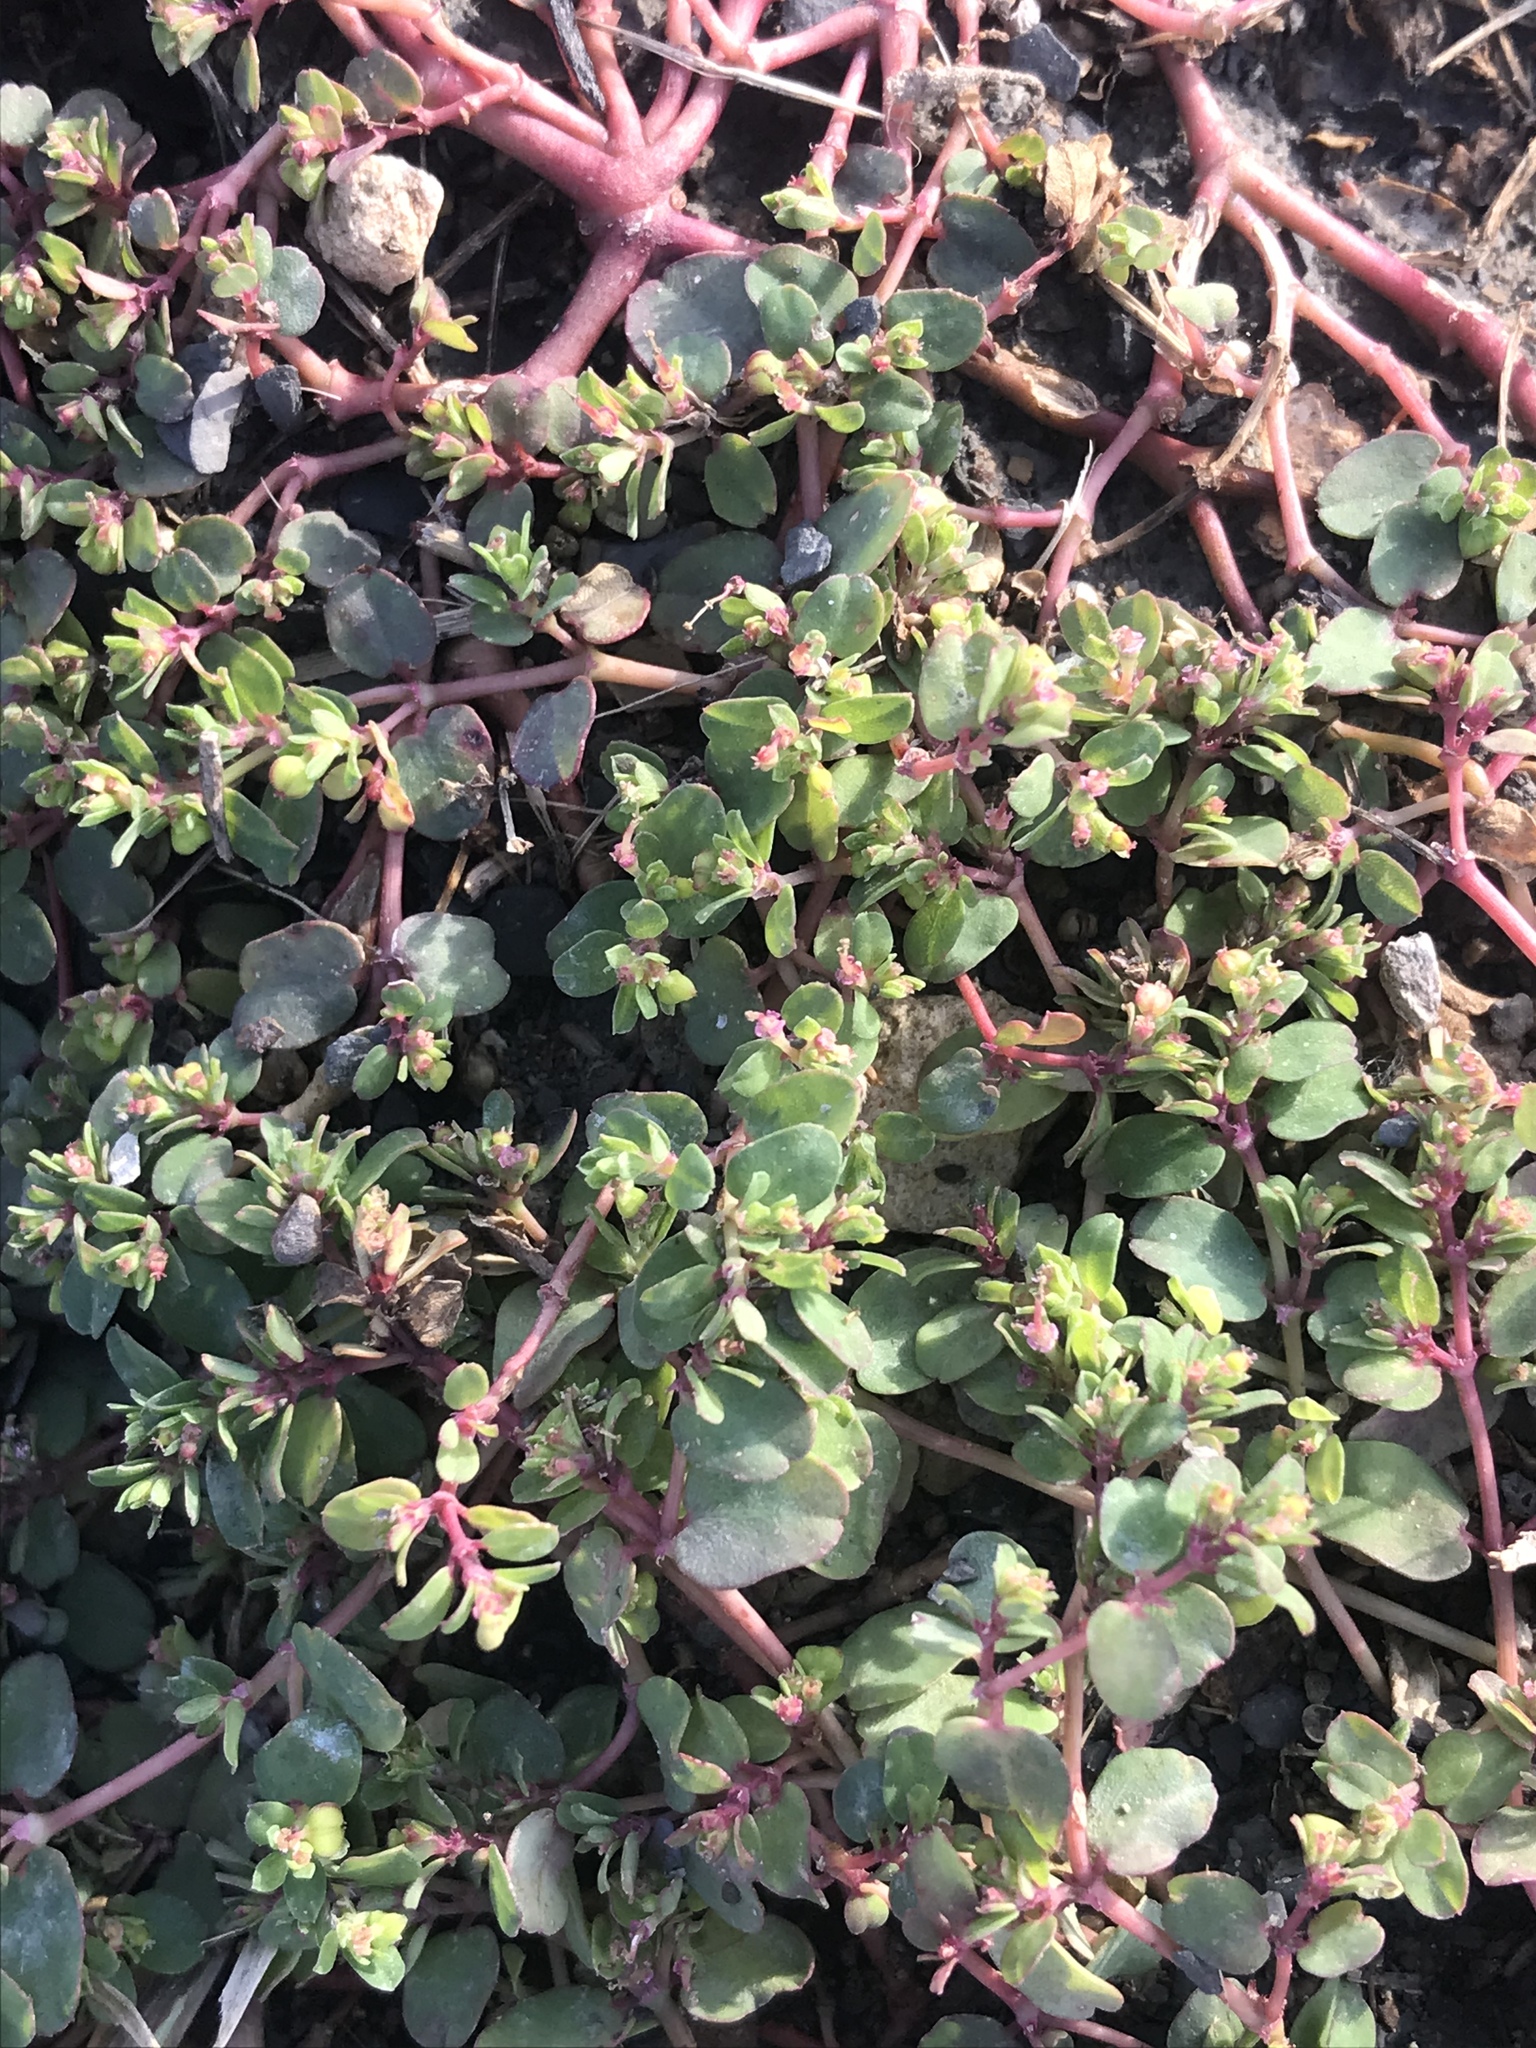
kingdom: Plantae
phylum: Tracheophyta
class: Magnoliopsida
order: Malpighiales
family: Euphorbiaceae
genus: Euphorbia
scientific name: Euphorbia serpens
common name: Matted sandmat
